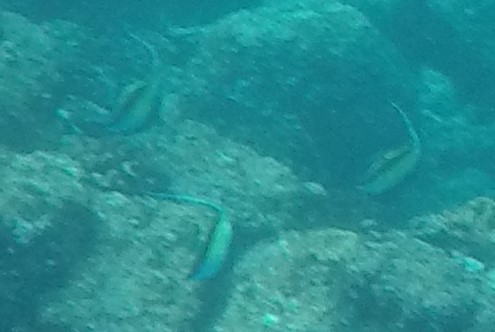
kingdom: Animalia
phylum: Chordata
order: Perciformes
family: Zanclidae
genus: Zanclus
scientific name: Zanclus cornutus
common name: Moorish idol
